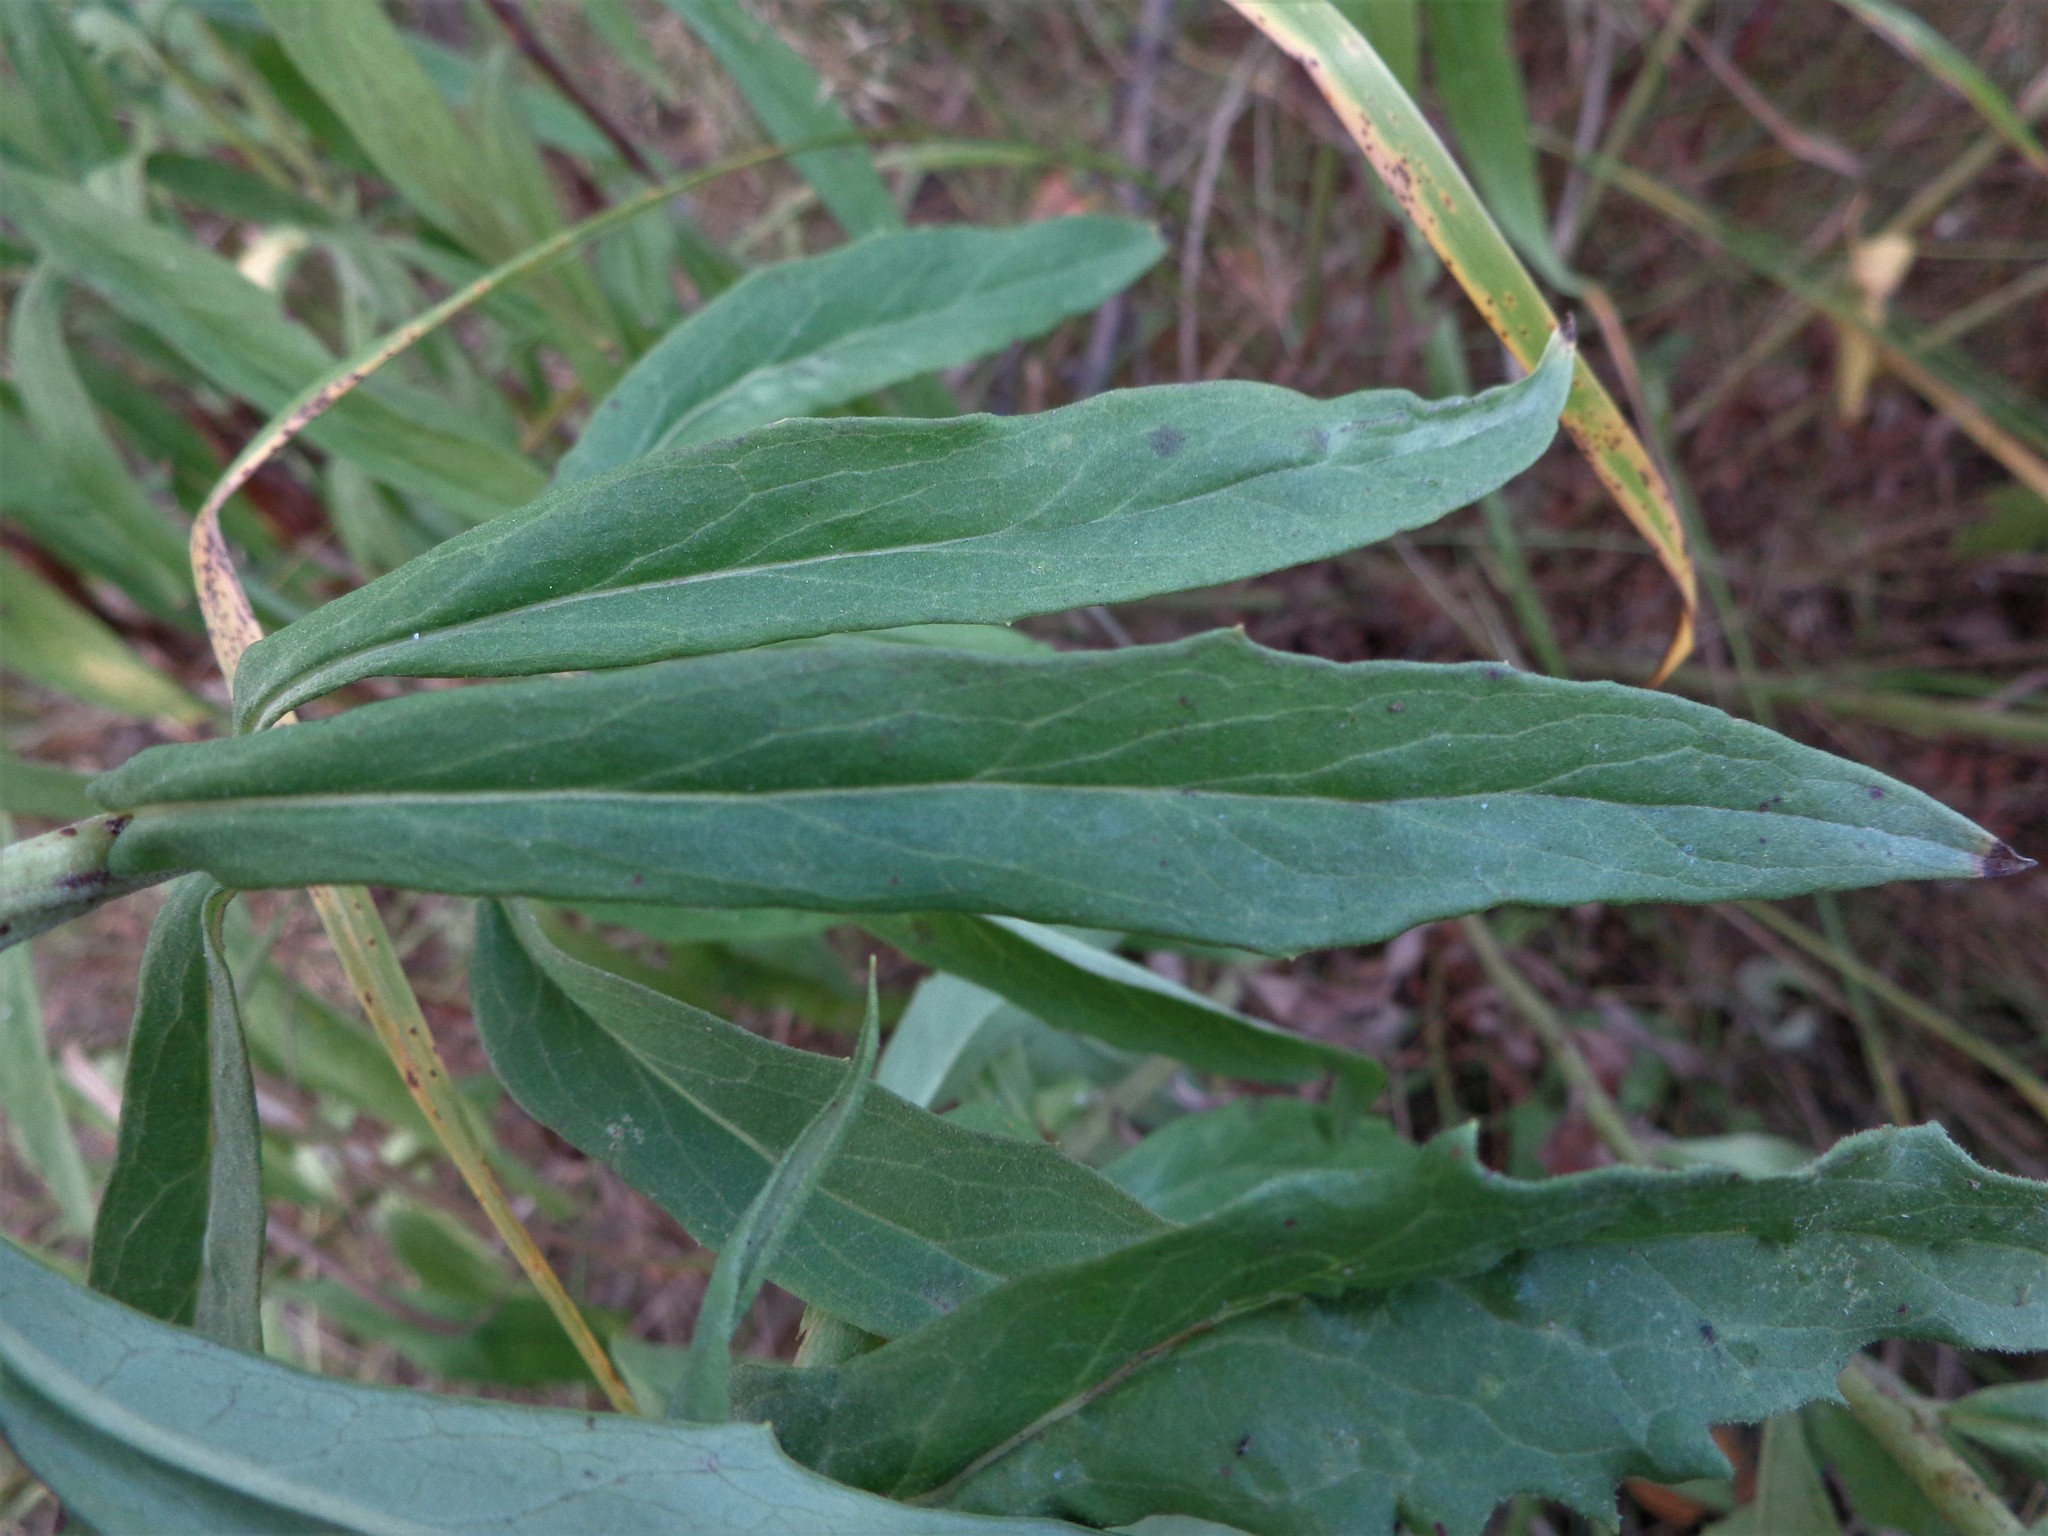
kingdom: Plantae
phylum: Tracheophyta
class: Magnoliopsida
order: Asterales
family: Asteraceae
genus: Hieracium
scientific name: Hieracium umbellatum
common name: Northern hawkweed
